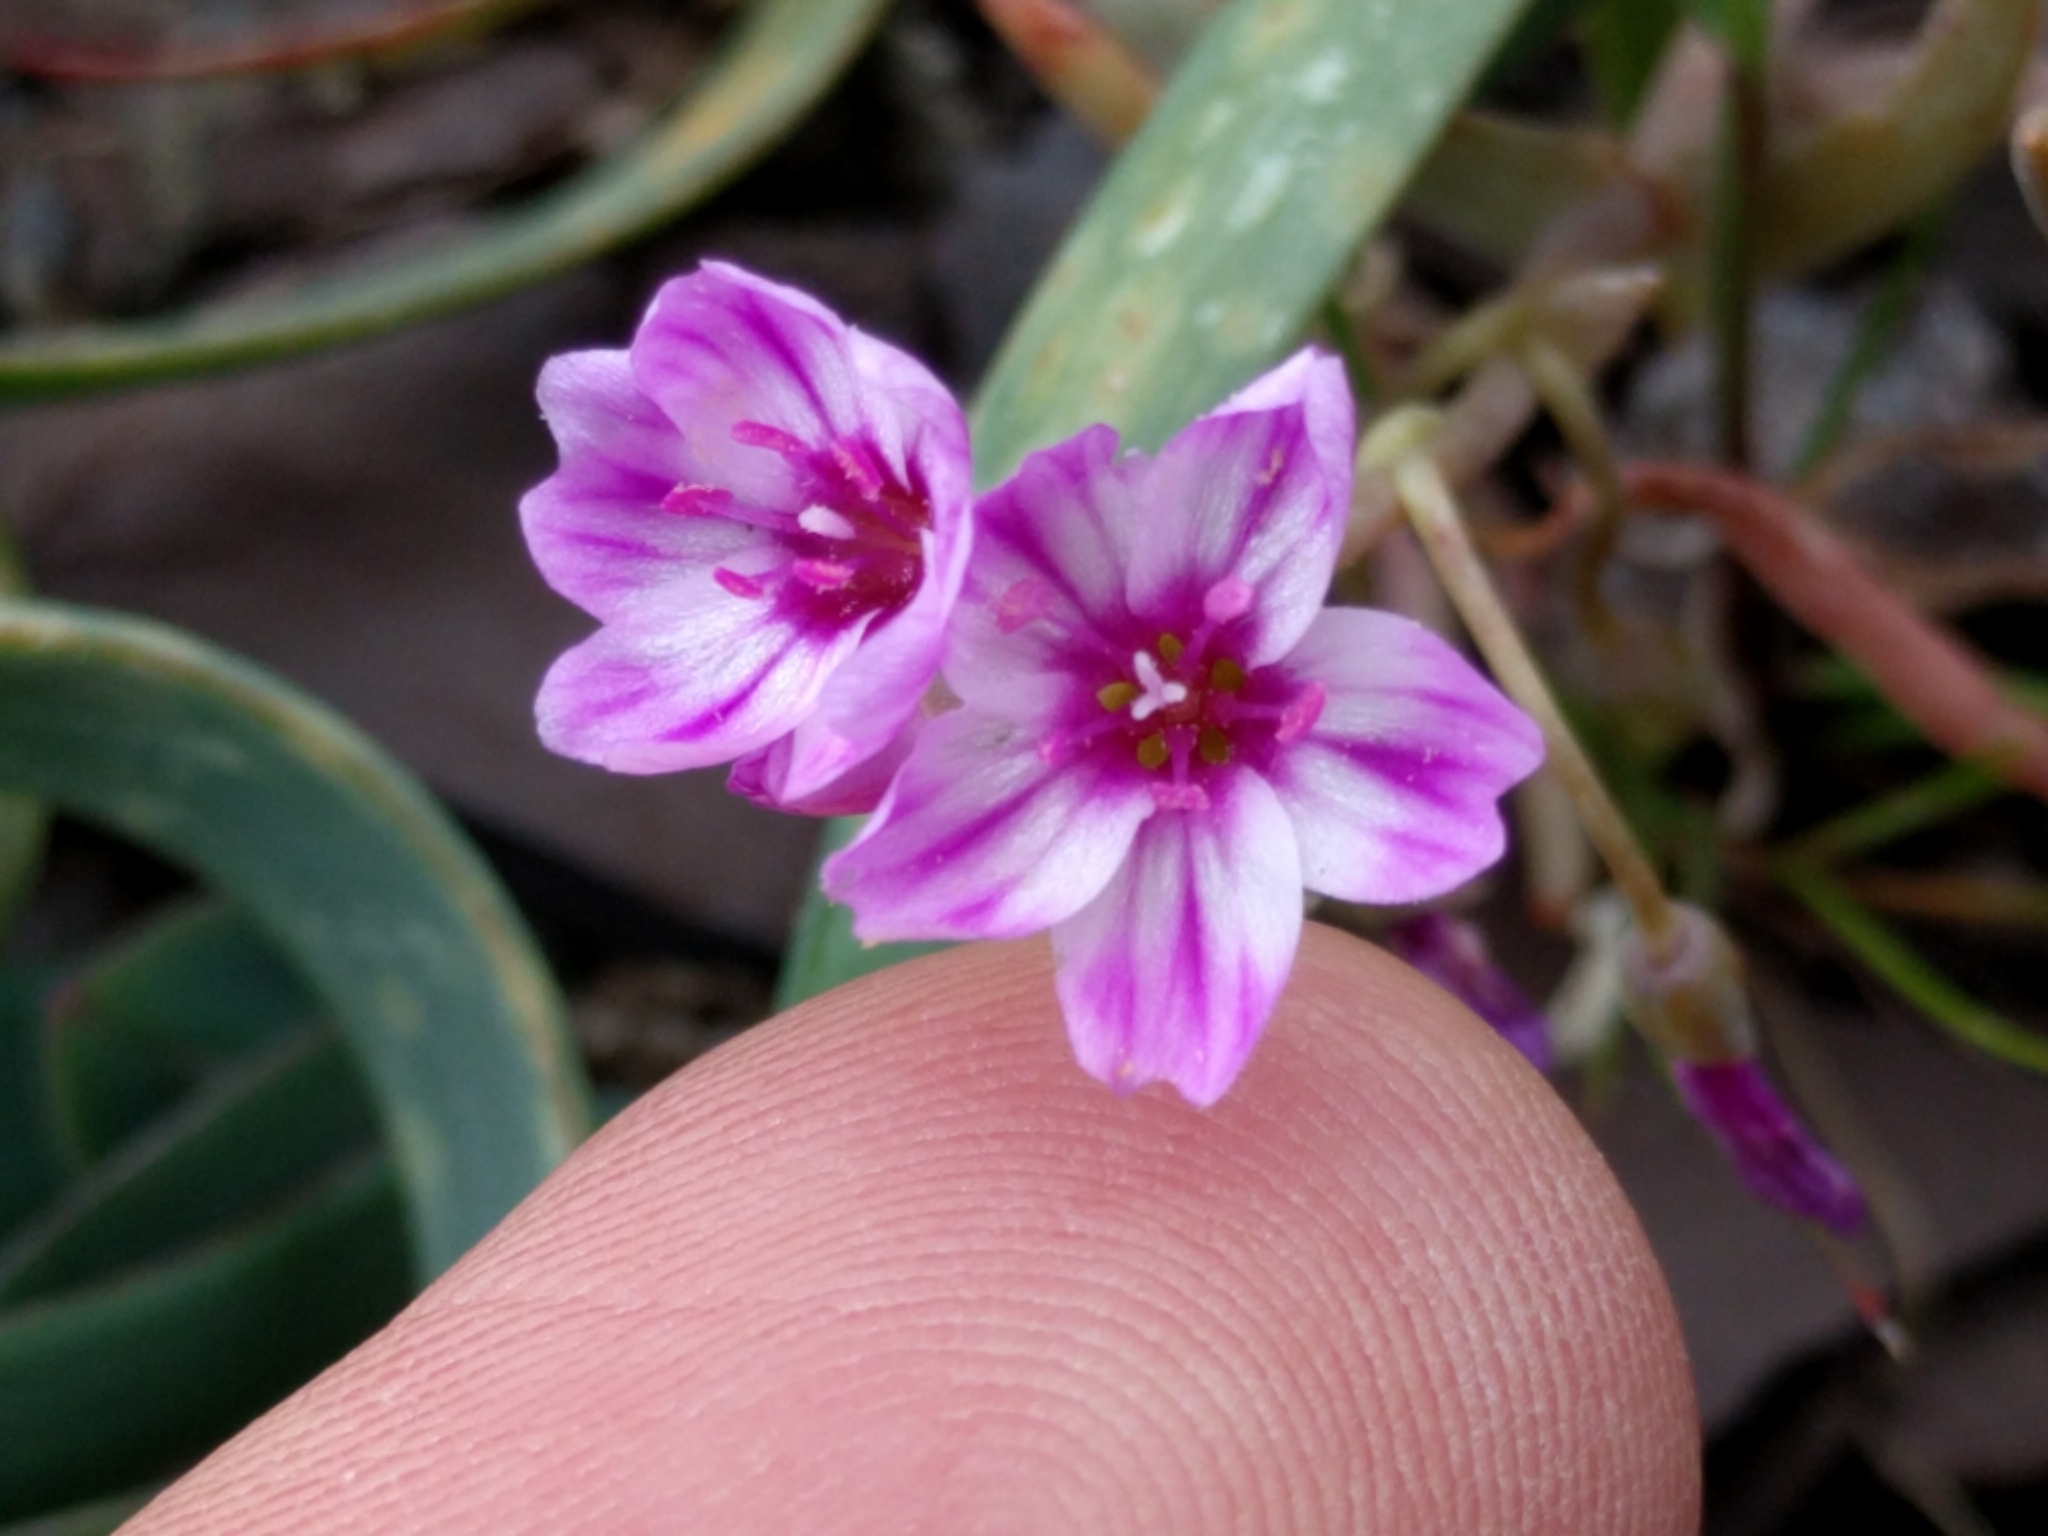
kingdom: Plantae
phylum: Tracheophyta
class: Magnoliopsida
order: Caryophyllales
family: Montiaceae
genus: Claytonia
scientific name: Claytonia gypsophiloides
